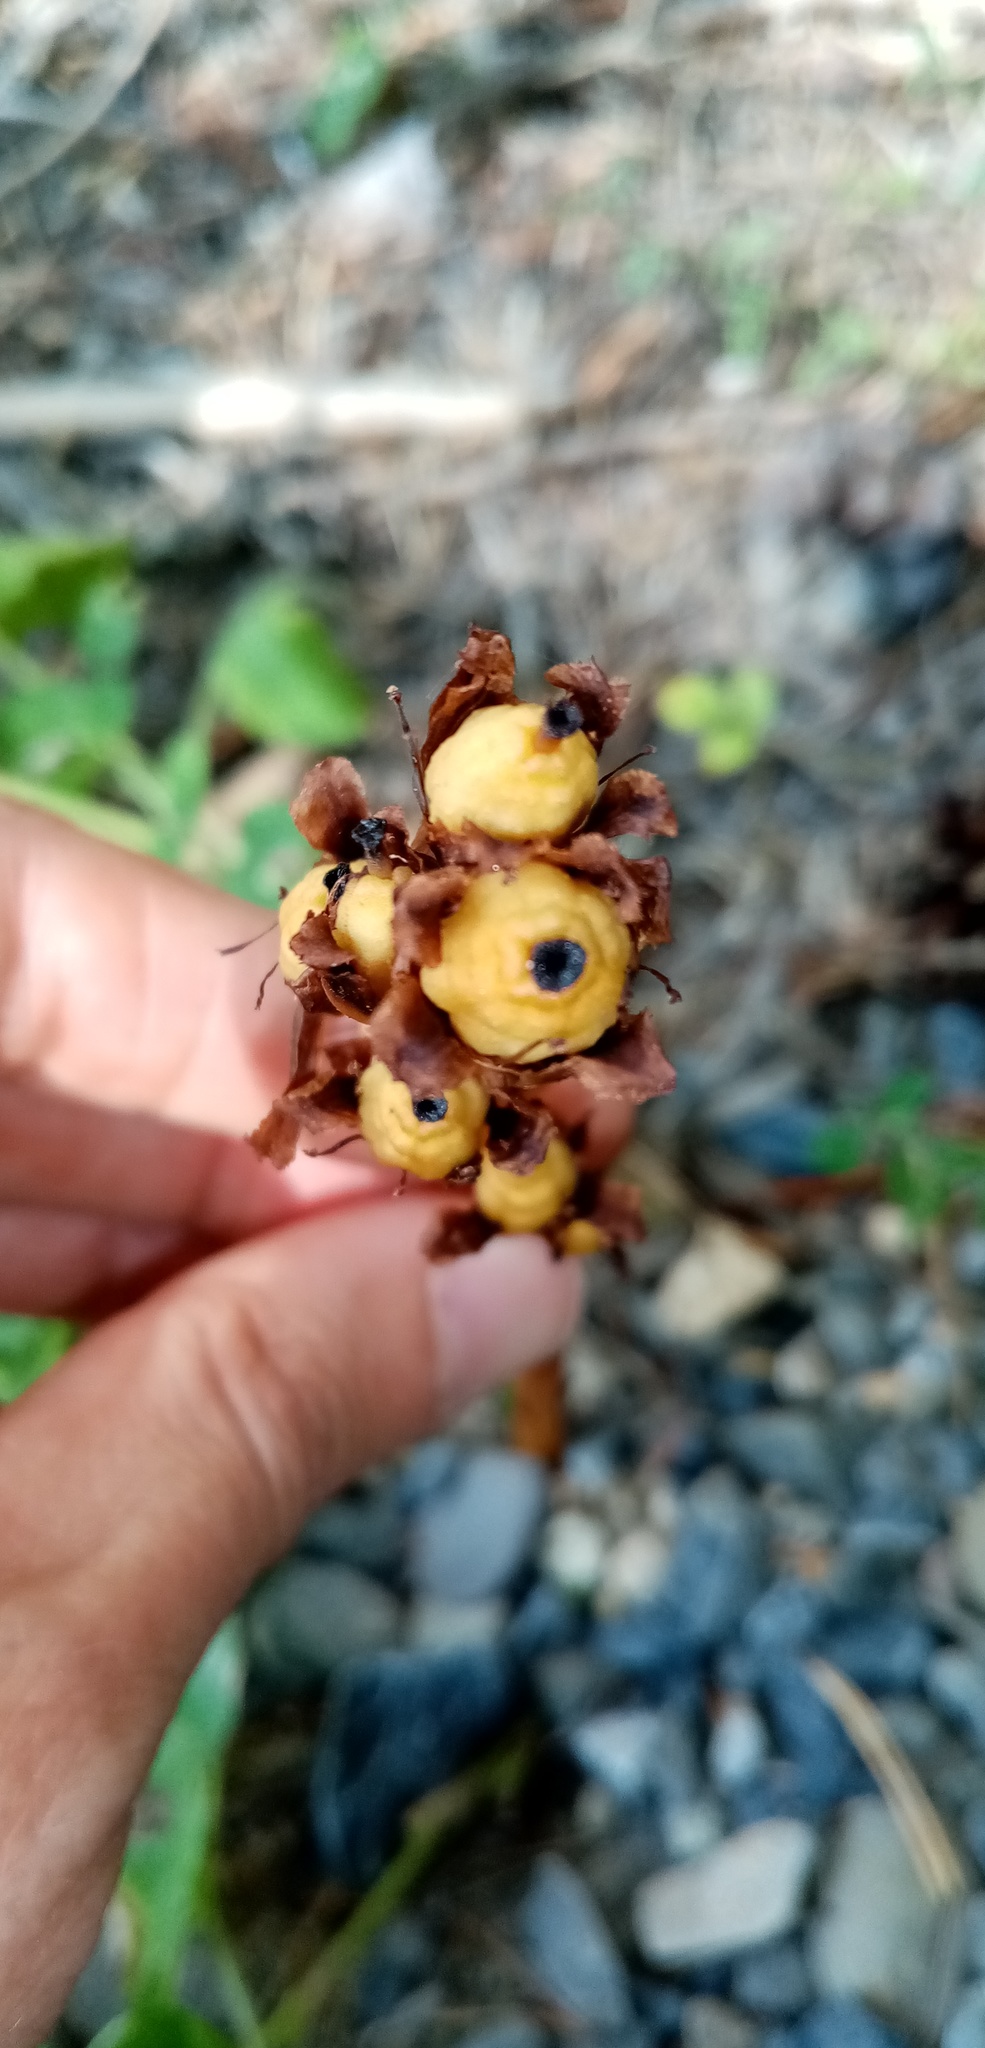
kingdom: Plantae
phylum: Tracheophyta
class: Magnoliopsida
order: Ericales
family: Ericaceae
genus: Hypopitys
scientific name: Hypopitys monotropa
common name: Yellow bird's-nest
